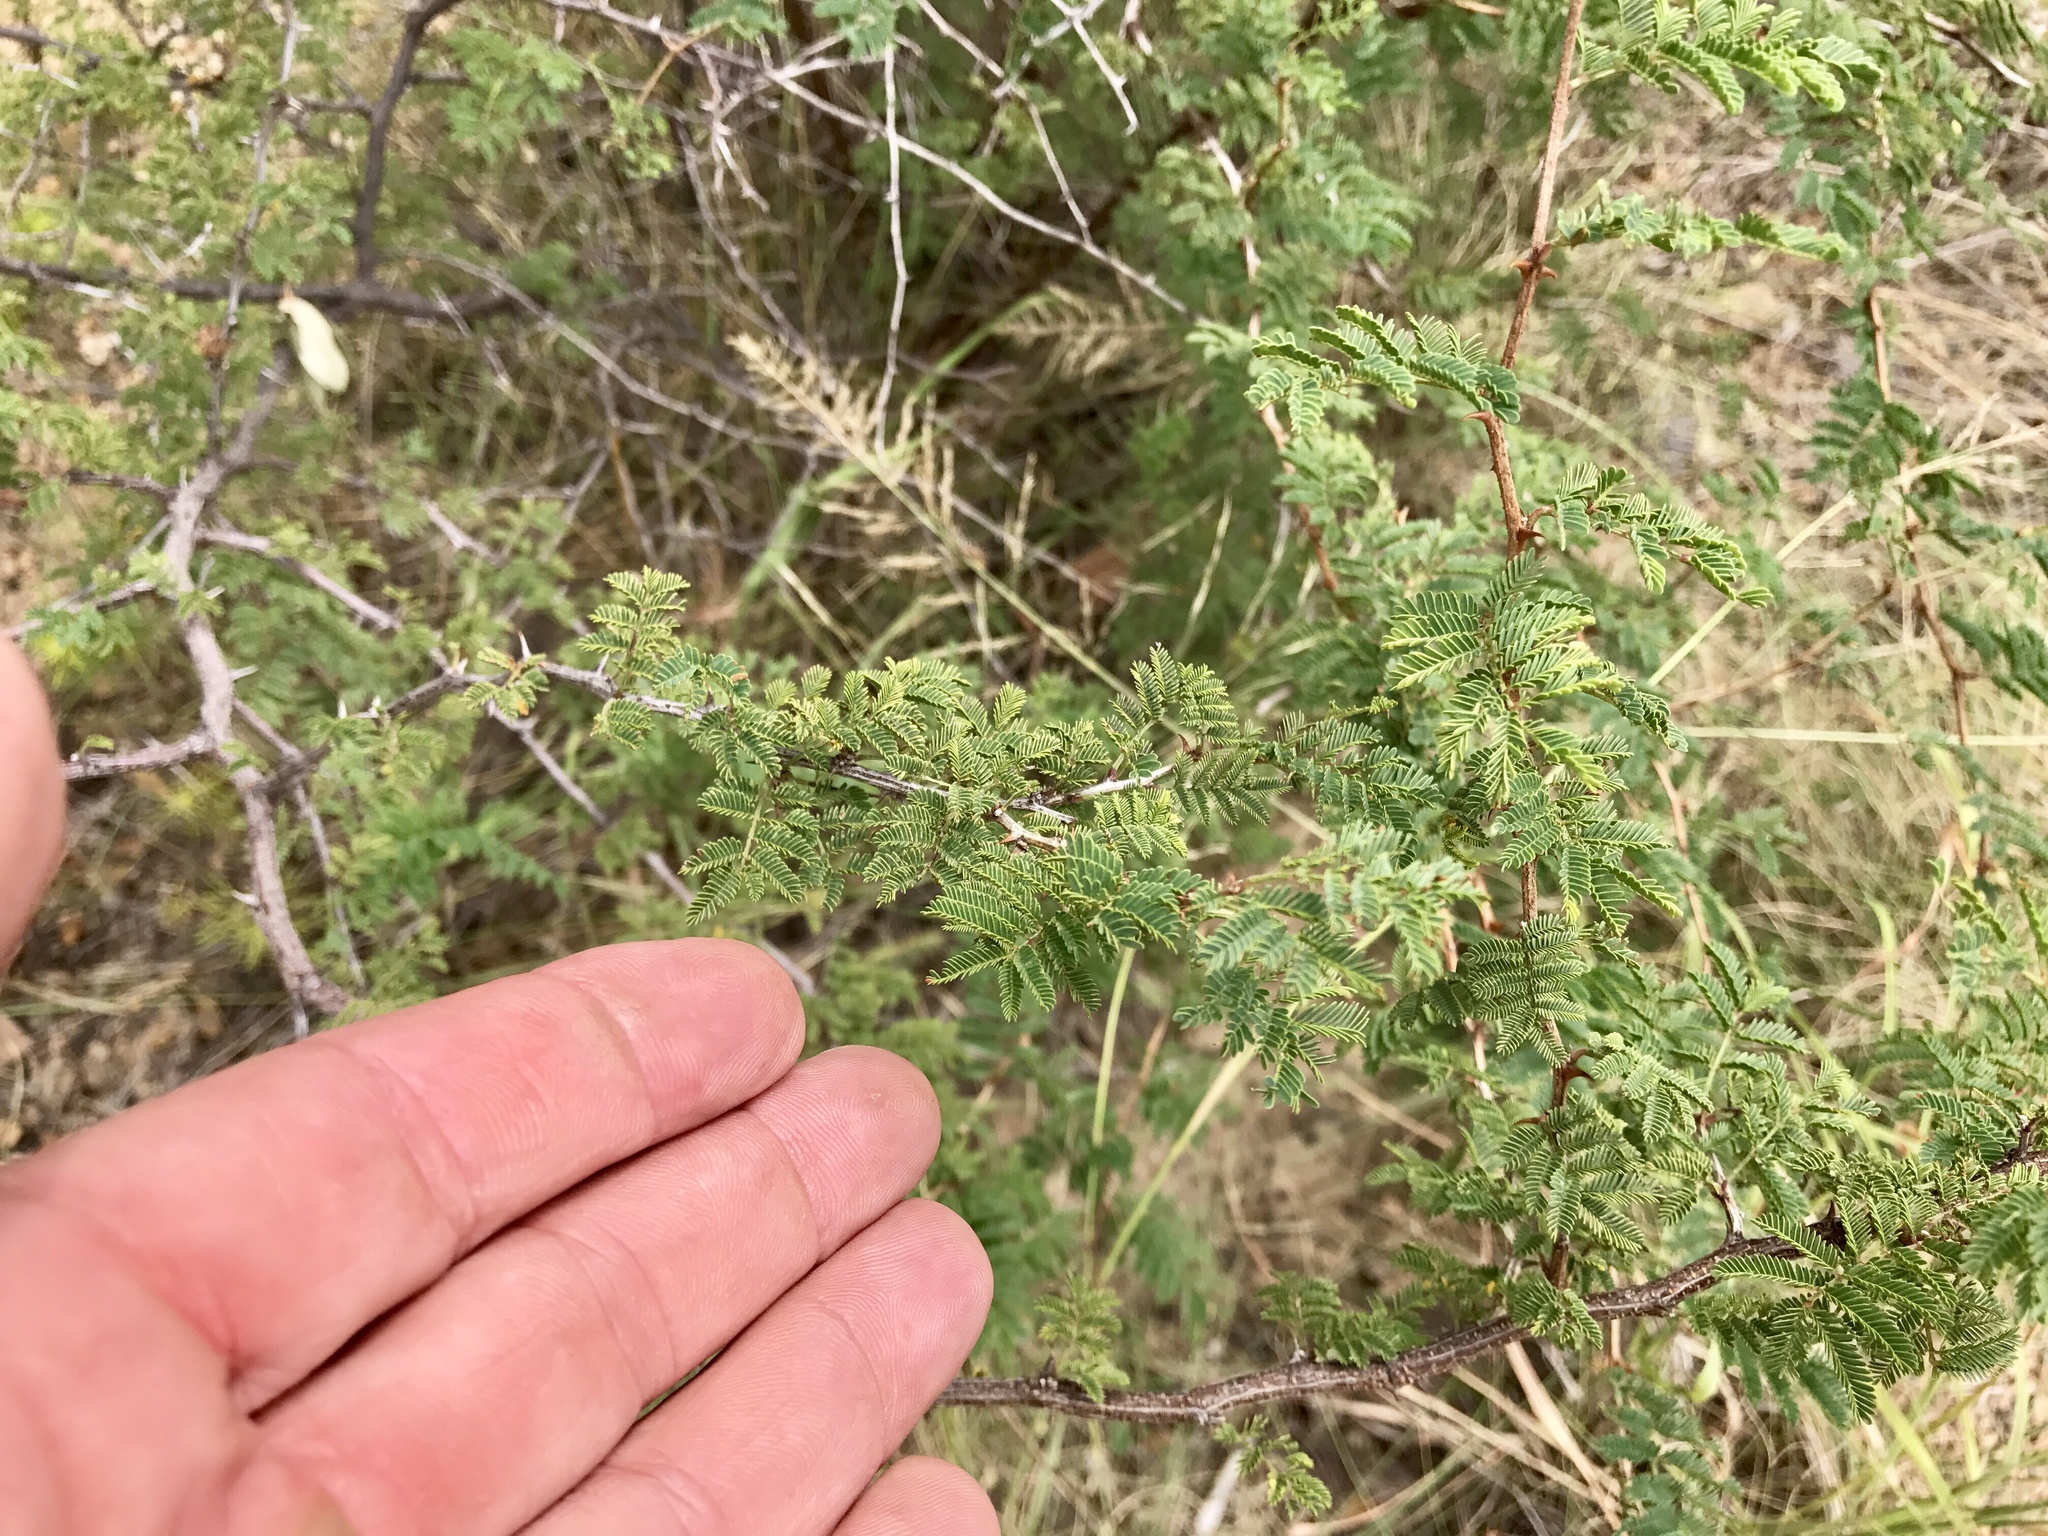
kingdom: Plantae
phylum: Tracheophyta
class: Magnoliopsida
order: Fabales
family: Fabaceae
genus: Mimosa
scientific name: Mimosa biuncifera
